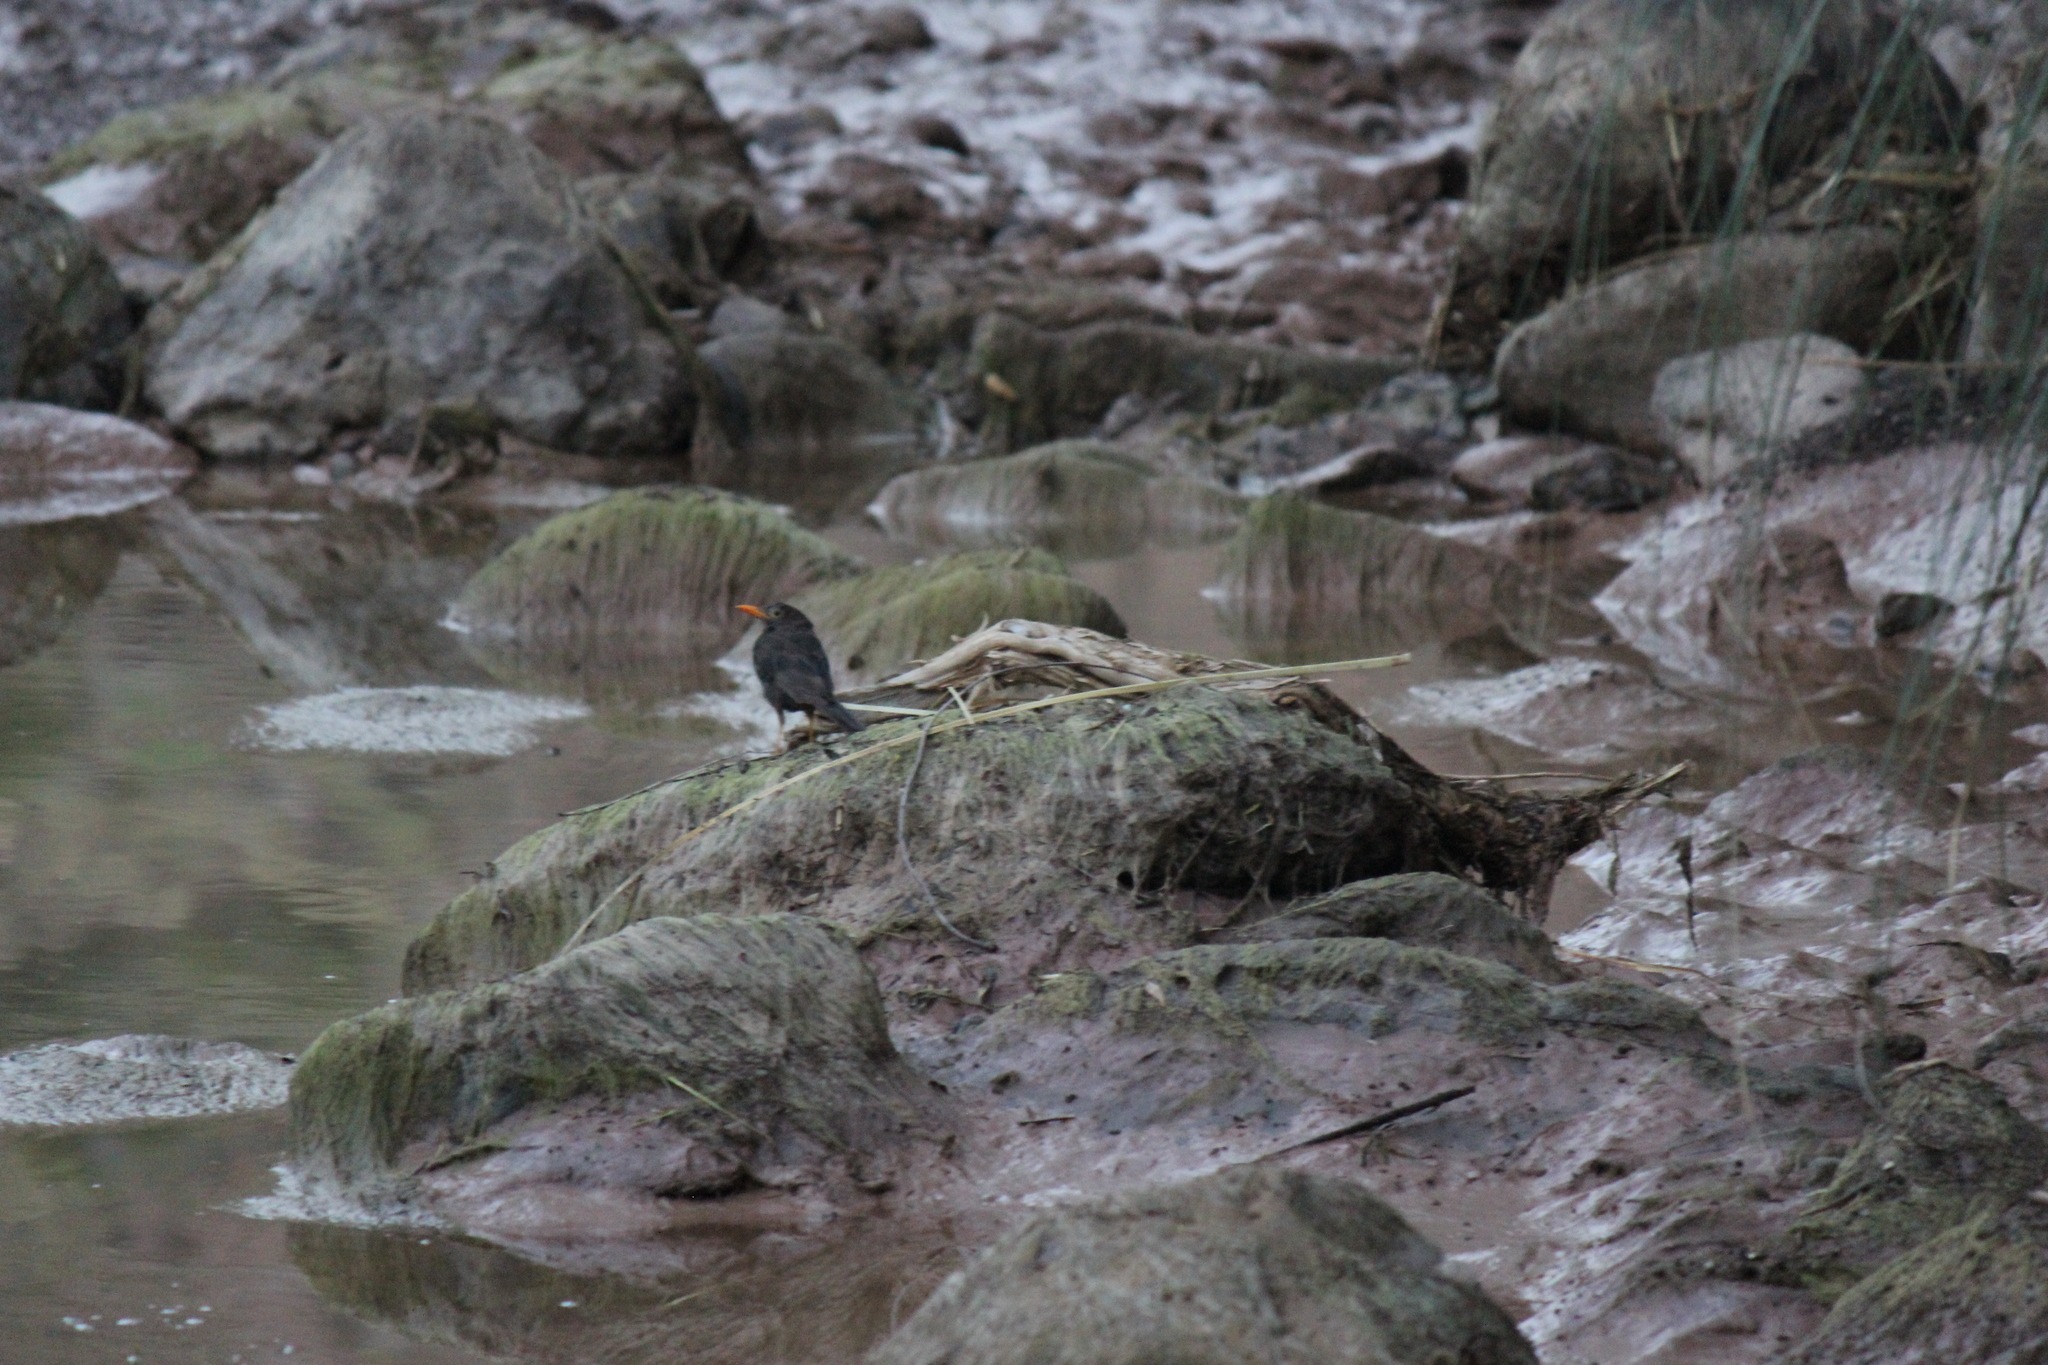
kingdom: Animalia
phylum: Chordata
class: Aves
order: Passeriformes
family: Turdidae
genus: Turdus
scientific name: Turdus chiguanco
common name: Chiguanco thrush
